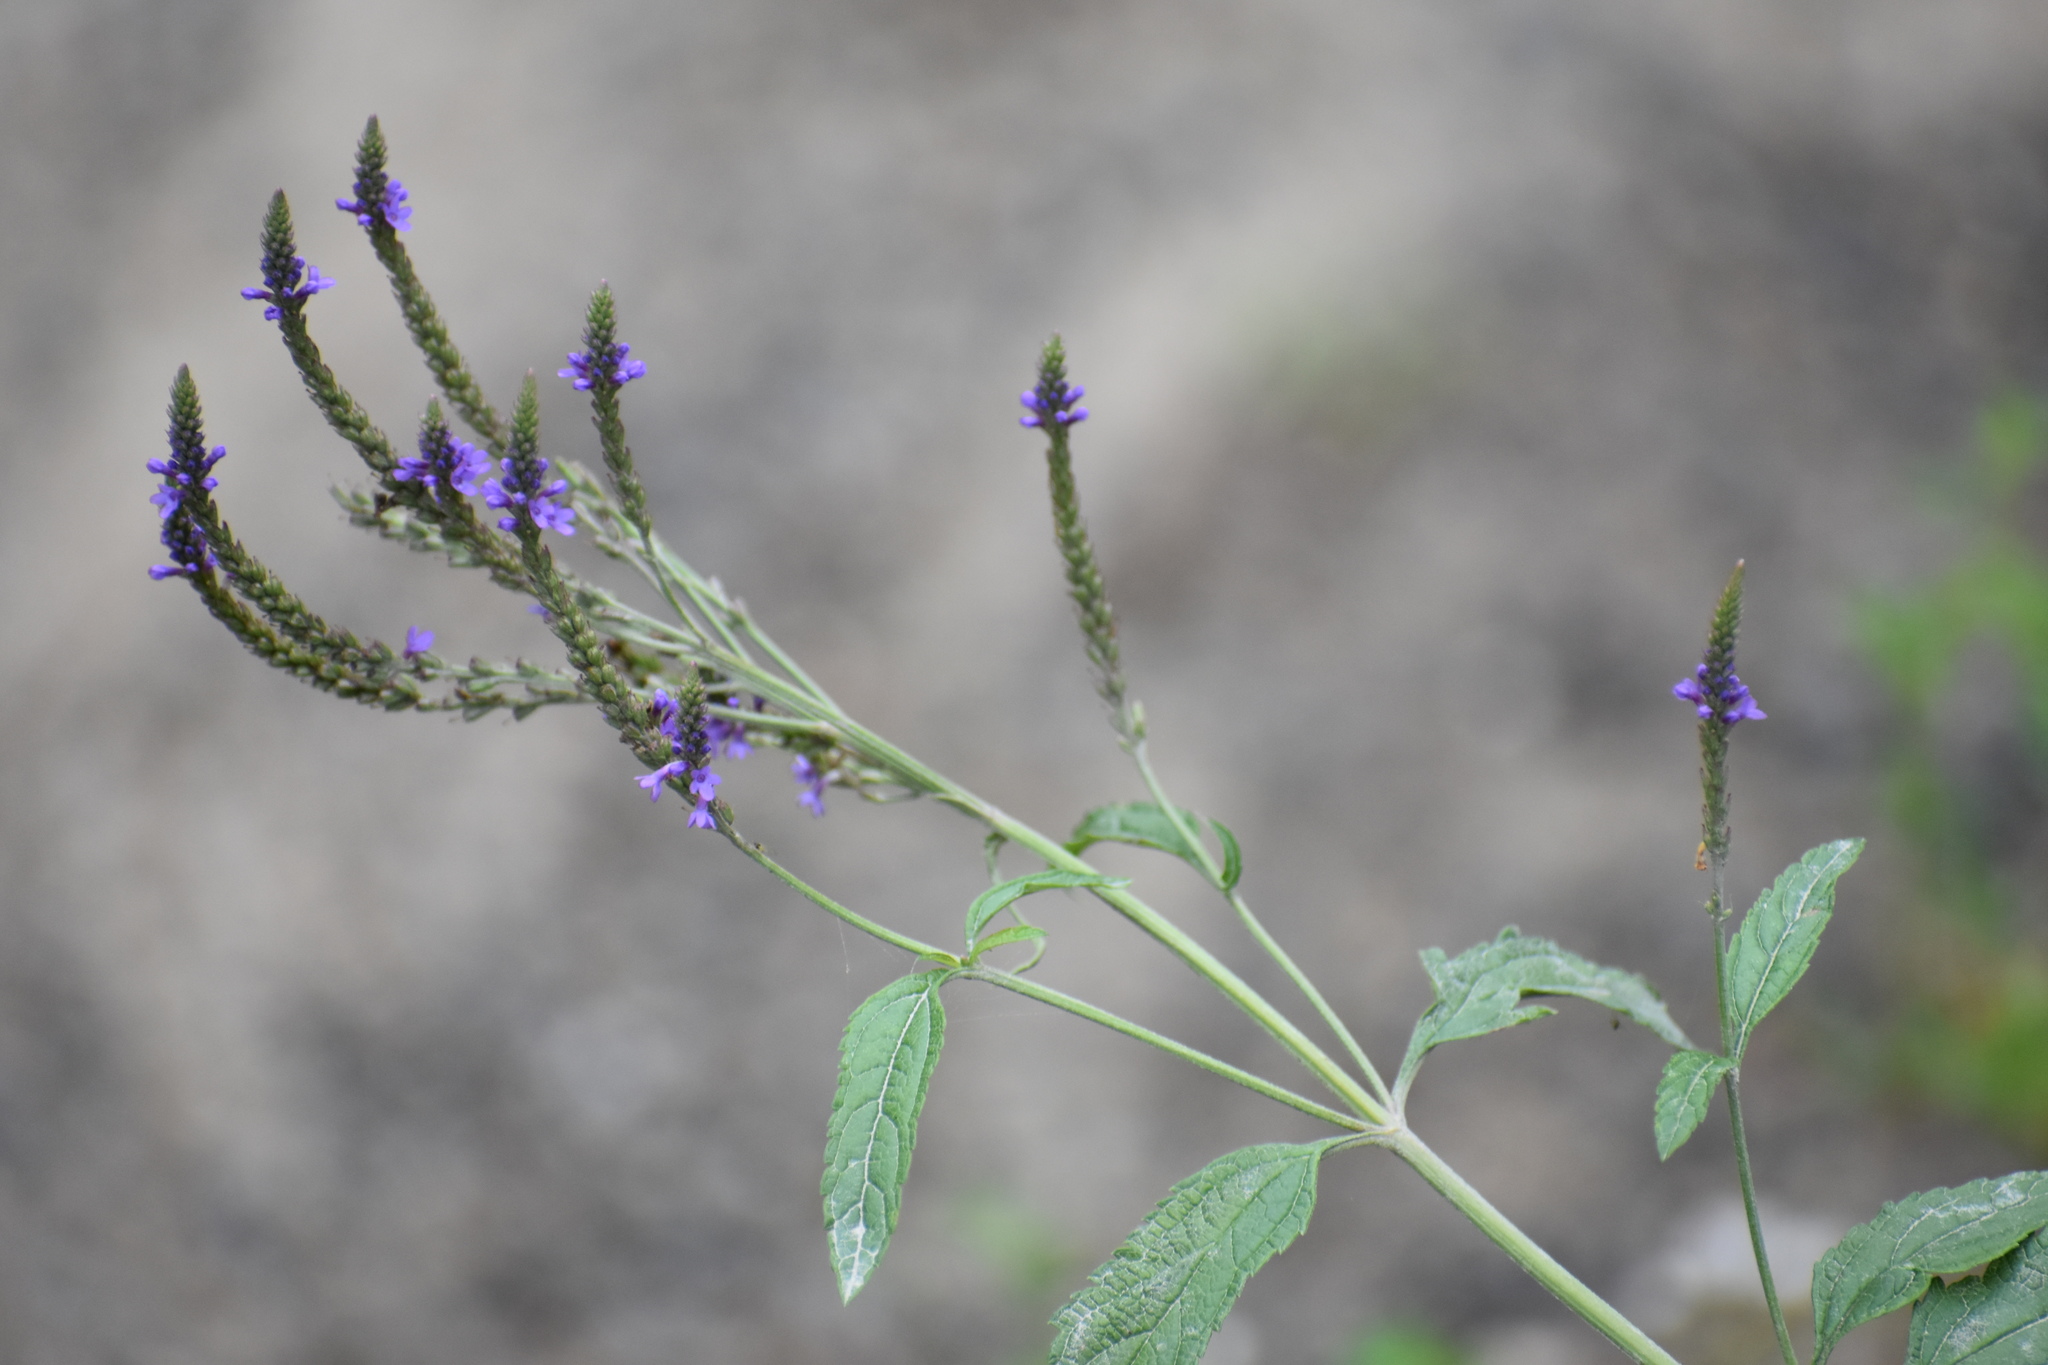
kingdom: Plantae
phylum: Tracheophyta
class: Magnoliopsida
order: Lamiales
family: Verbenaceae
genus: Verbena
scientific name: Verbena hastata
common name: American blue vervain
